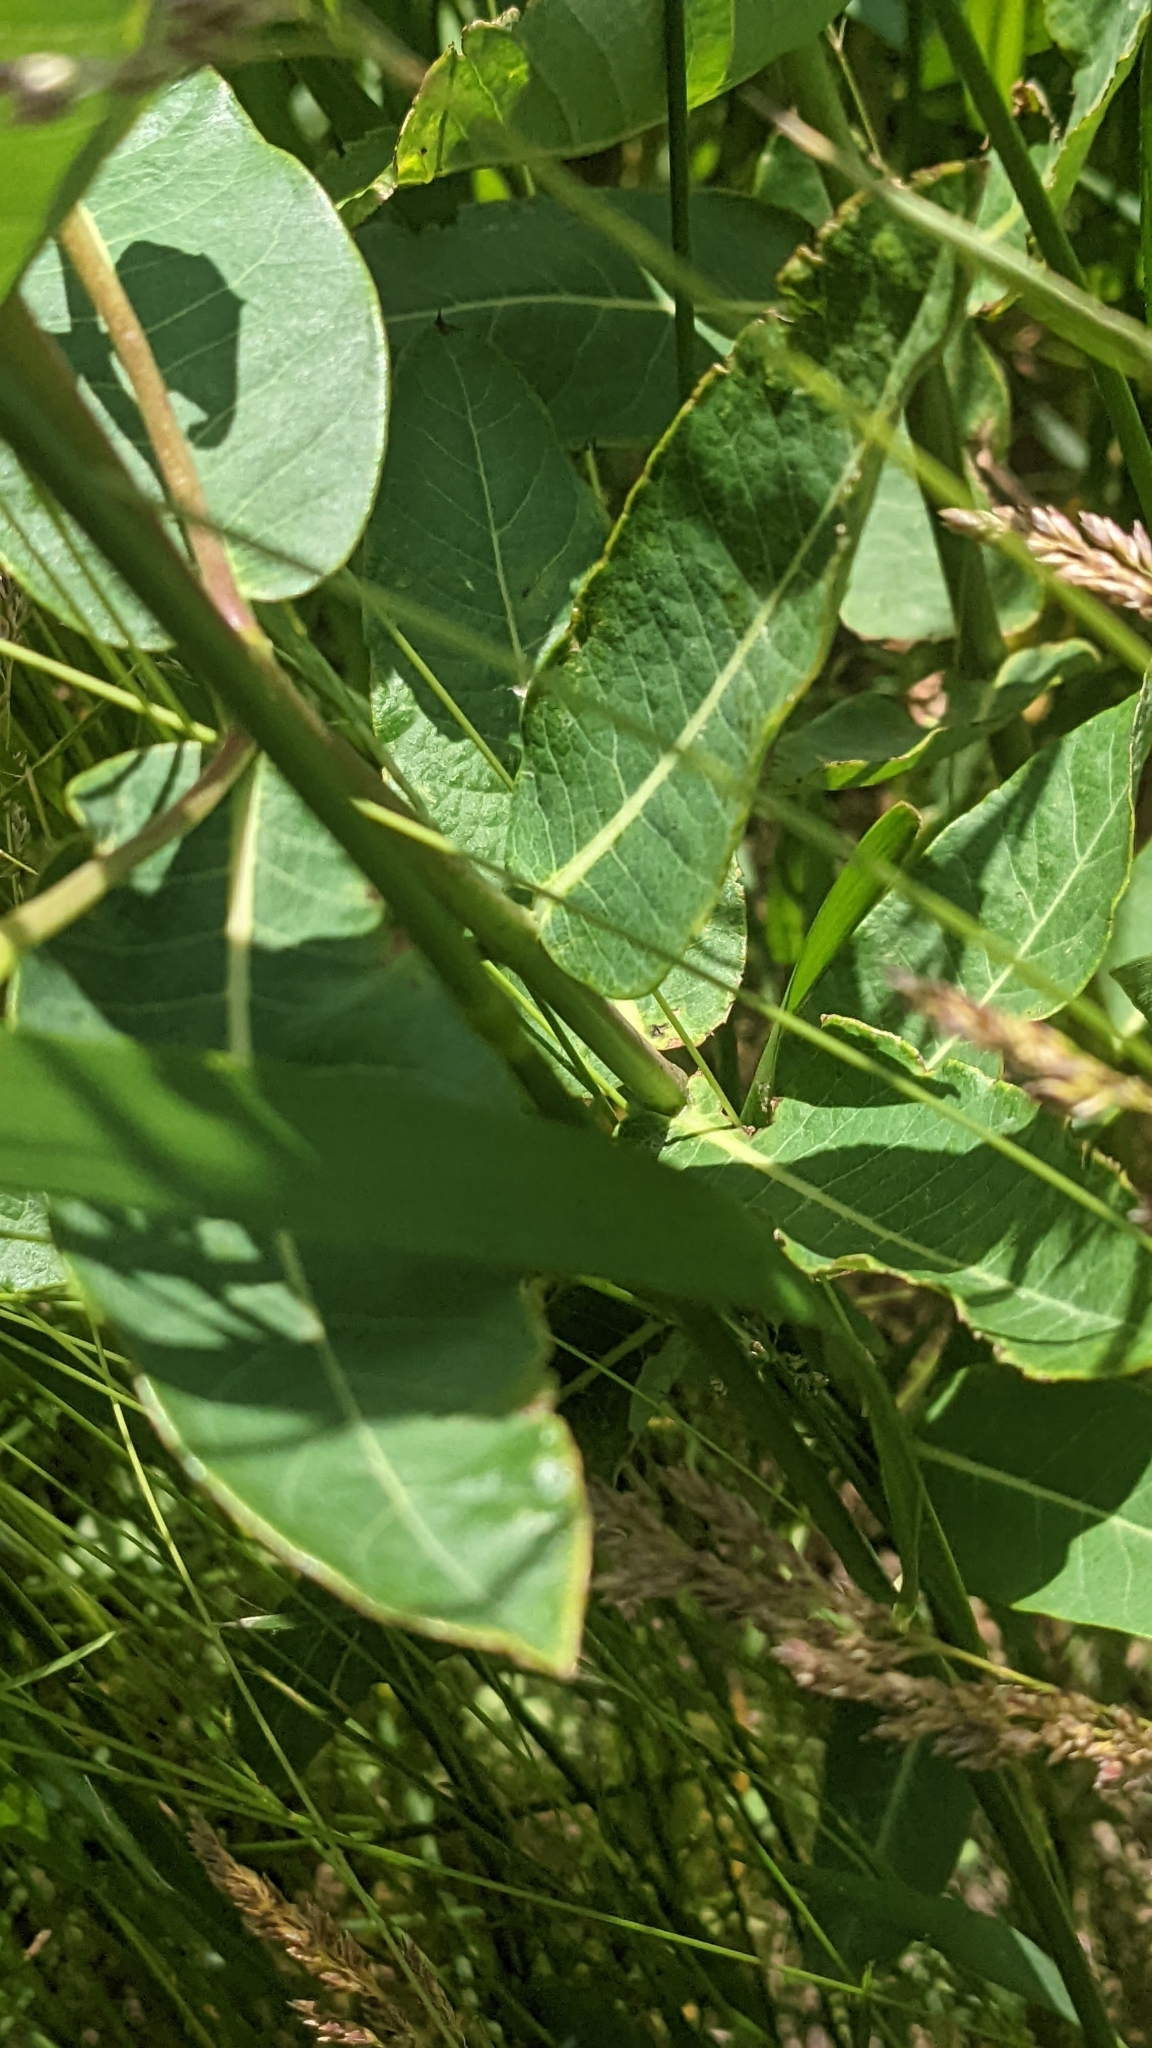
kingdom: Plantae
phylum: Tracheophyta
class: Magnoliopsida
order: Gentianales
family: Apocynaceae
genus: Apocynum
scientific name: Apocynum cannabinum
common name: Hemp dogbane
